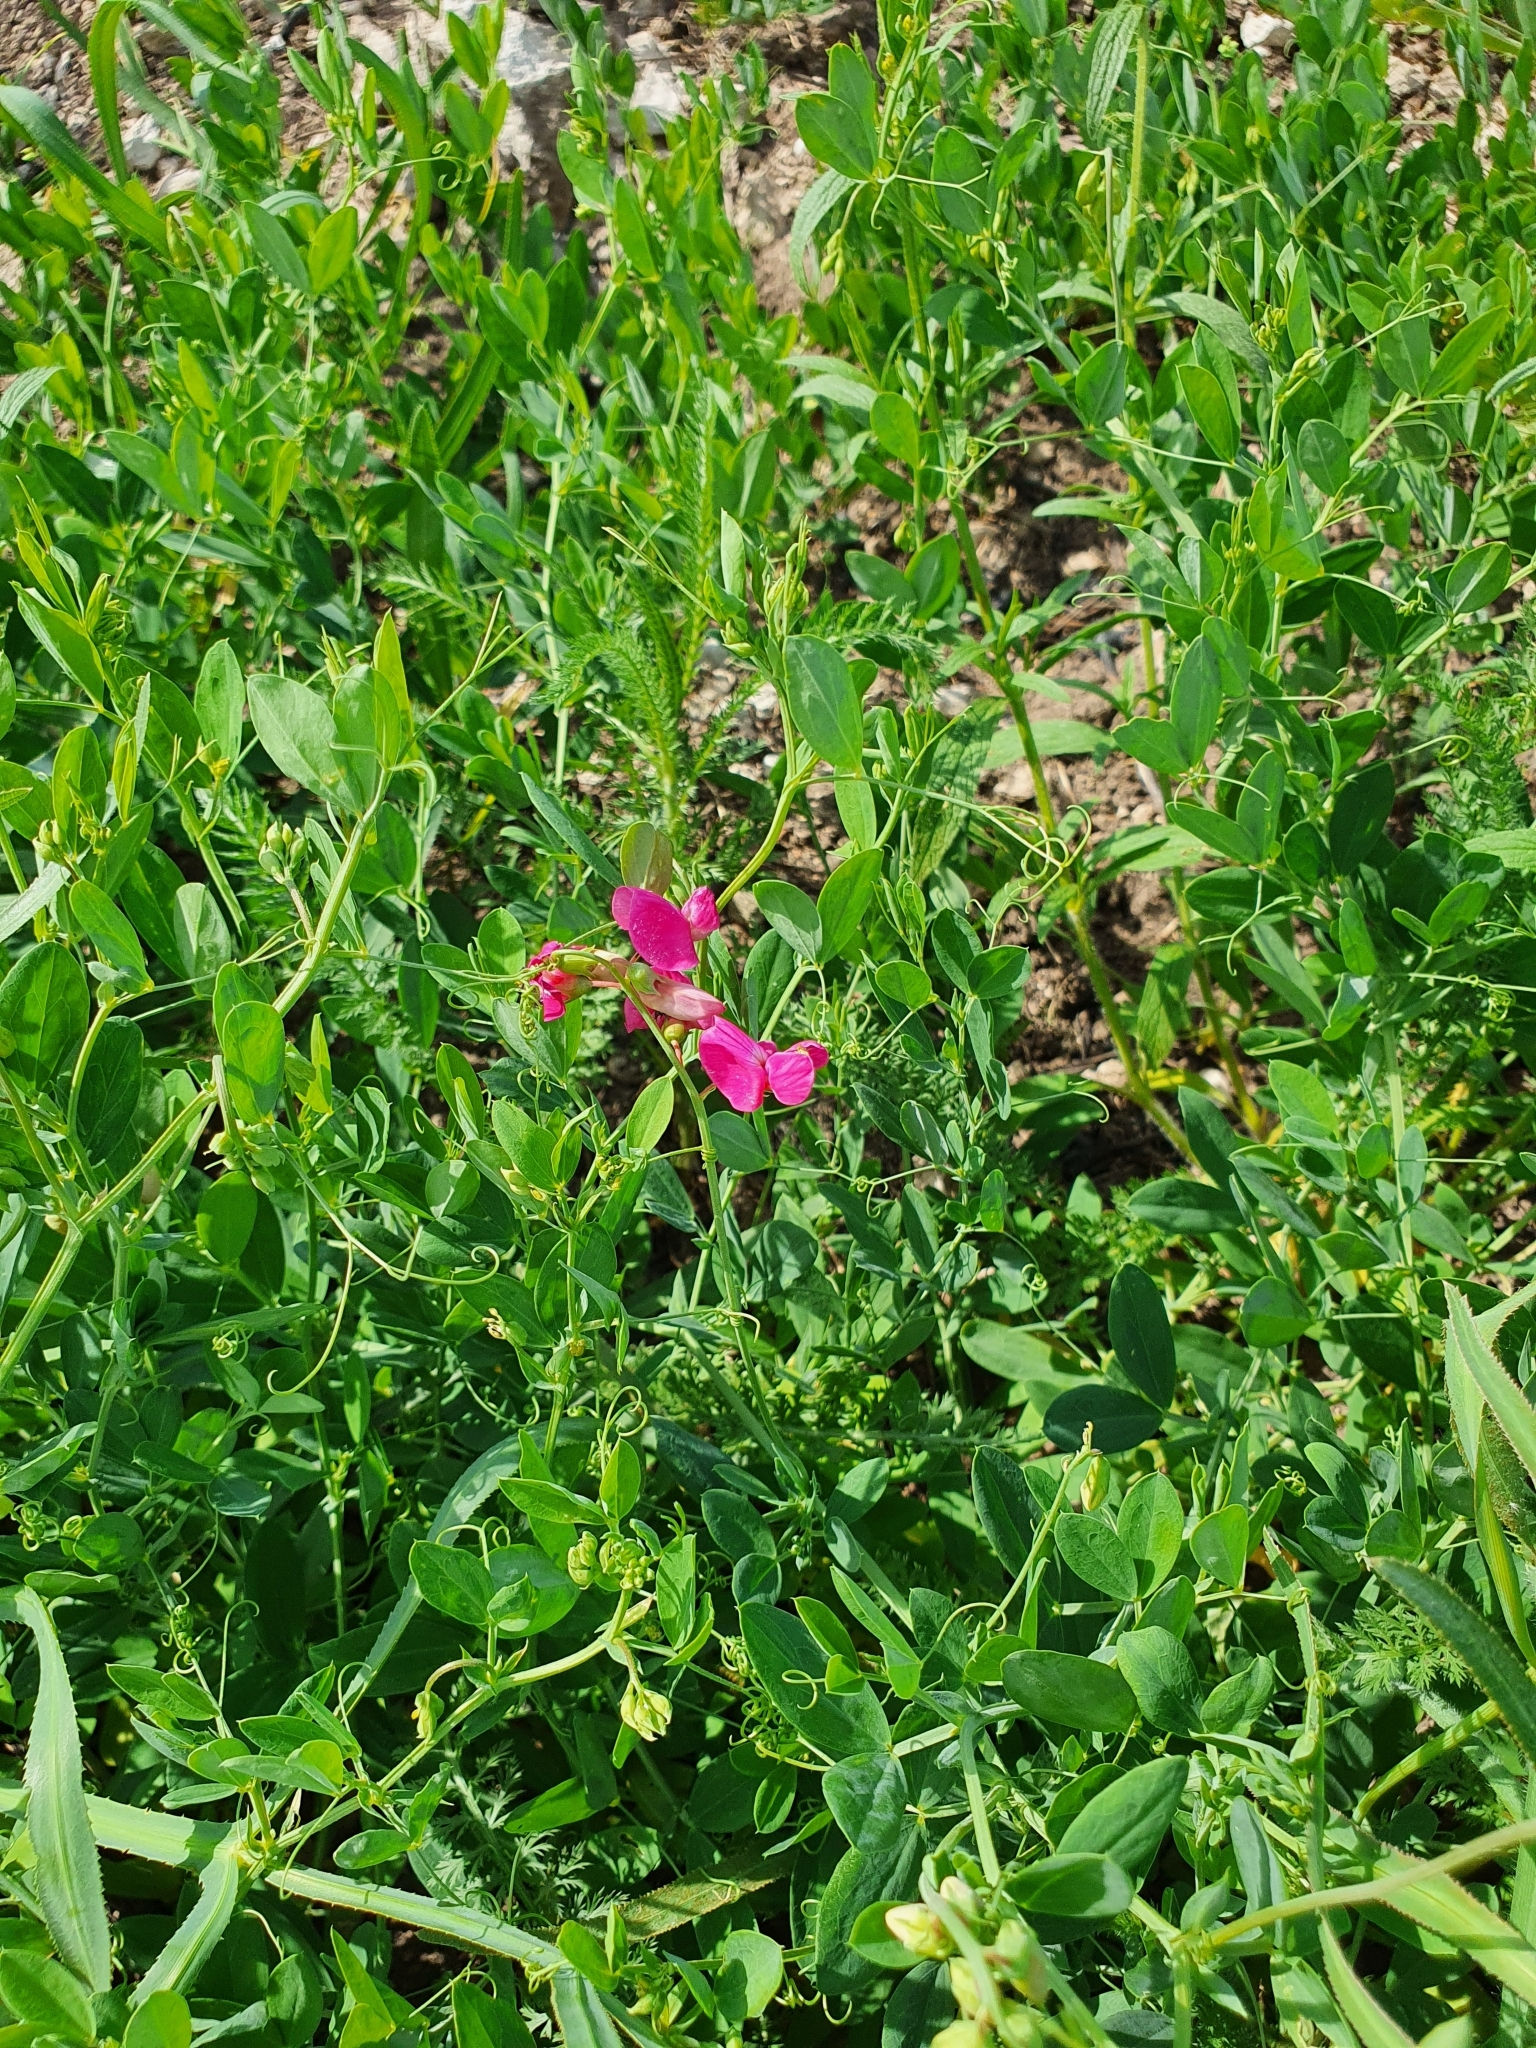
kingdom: Plantae
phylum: Tracheophyta
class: Magnoliopsida
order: Fabales
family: Fabaceae
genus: Lathyrus
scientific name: Lathyrus tuberosus
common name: Tuberous pea
